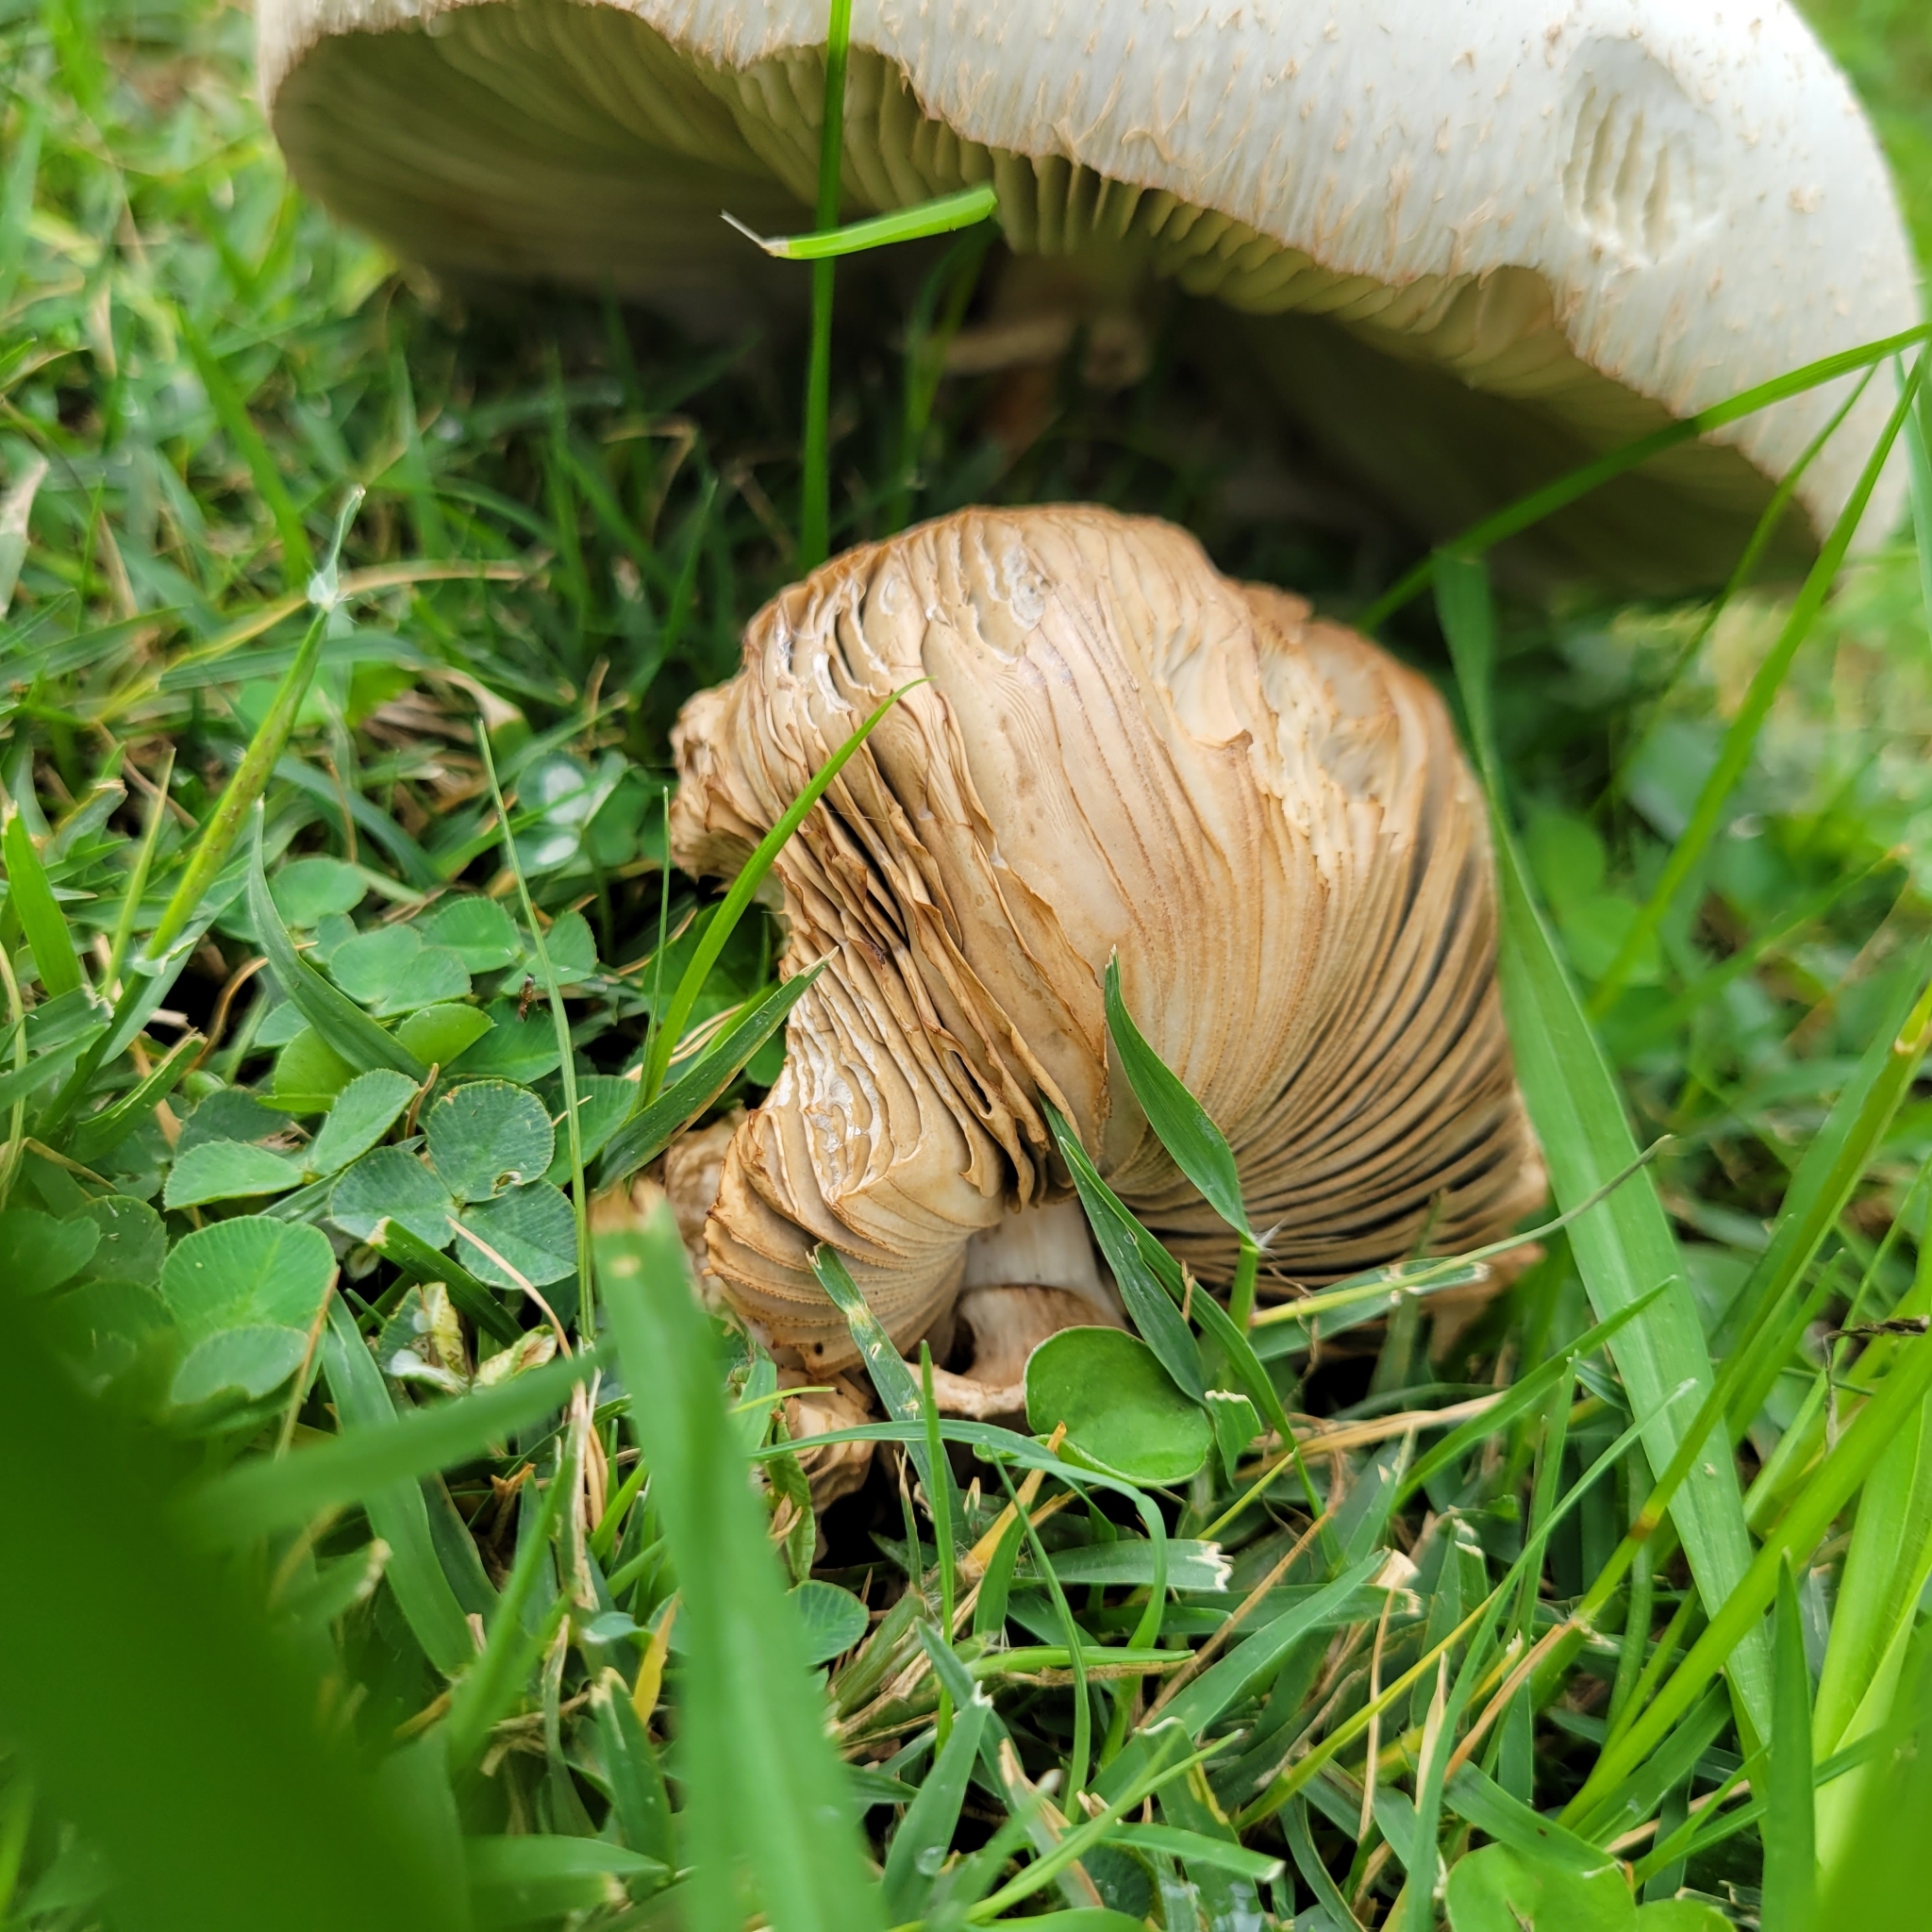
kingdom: Fungi
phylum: Basidiomycota
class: Agaricomycetes
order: Agaricales
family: Agaricaceae
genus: Chlorophyllum
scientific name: Chlorophyllum molybdites
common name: False parasol
